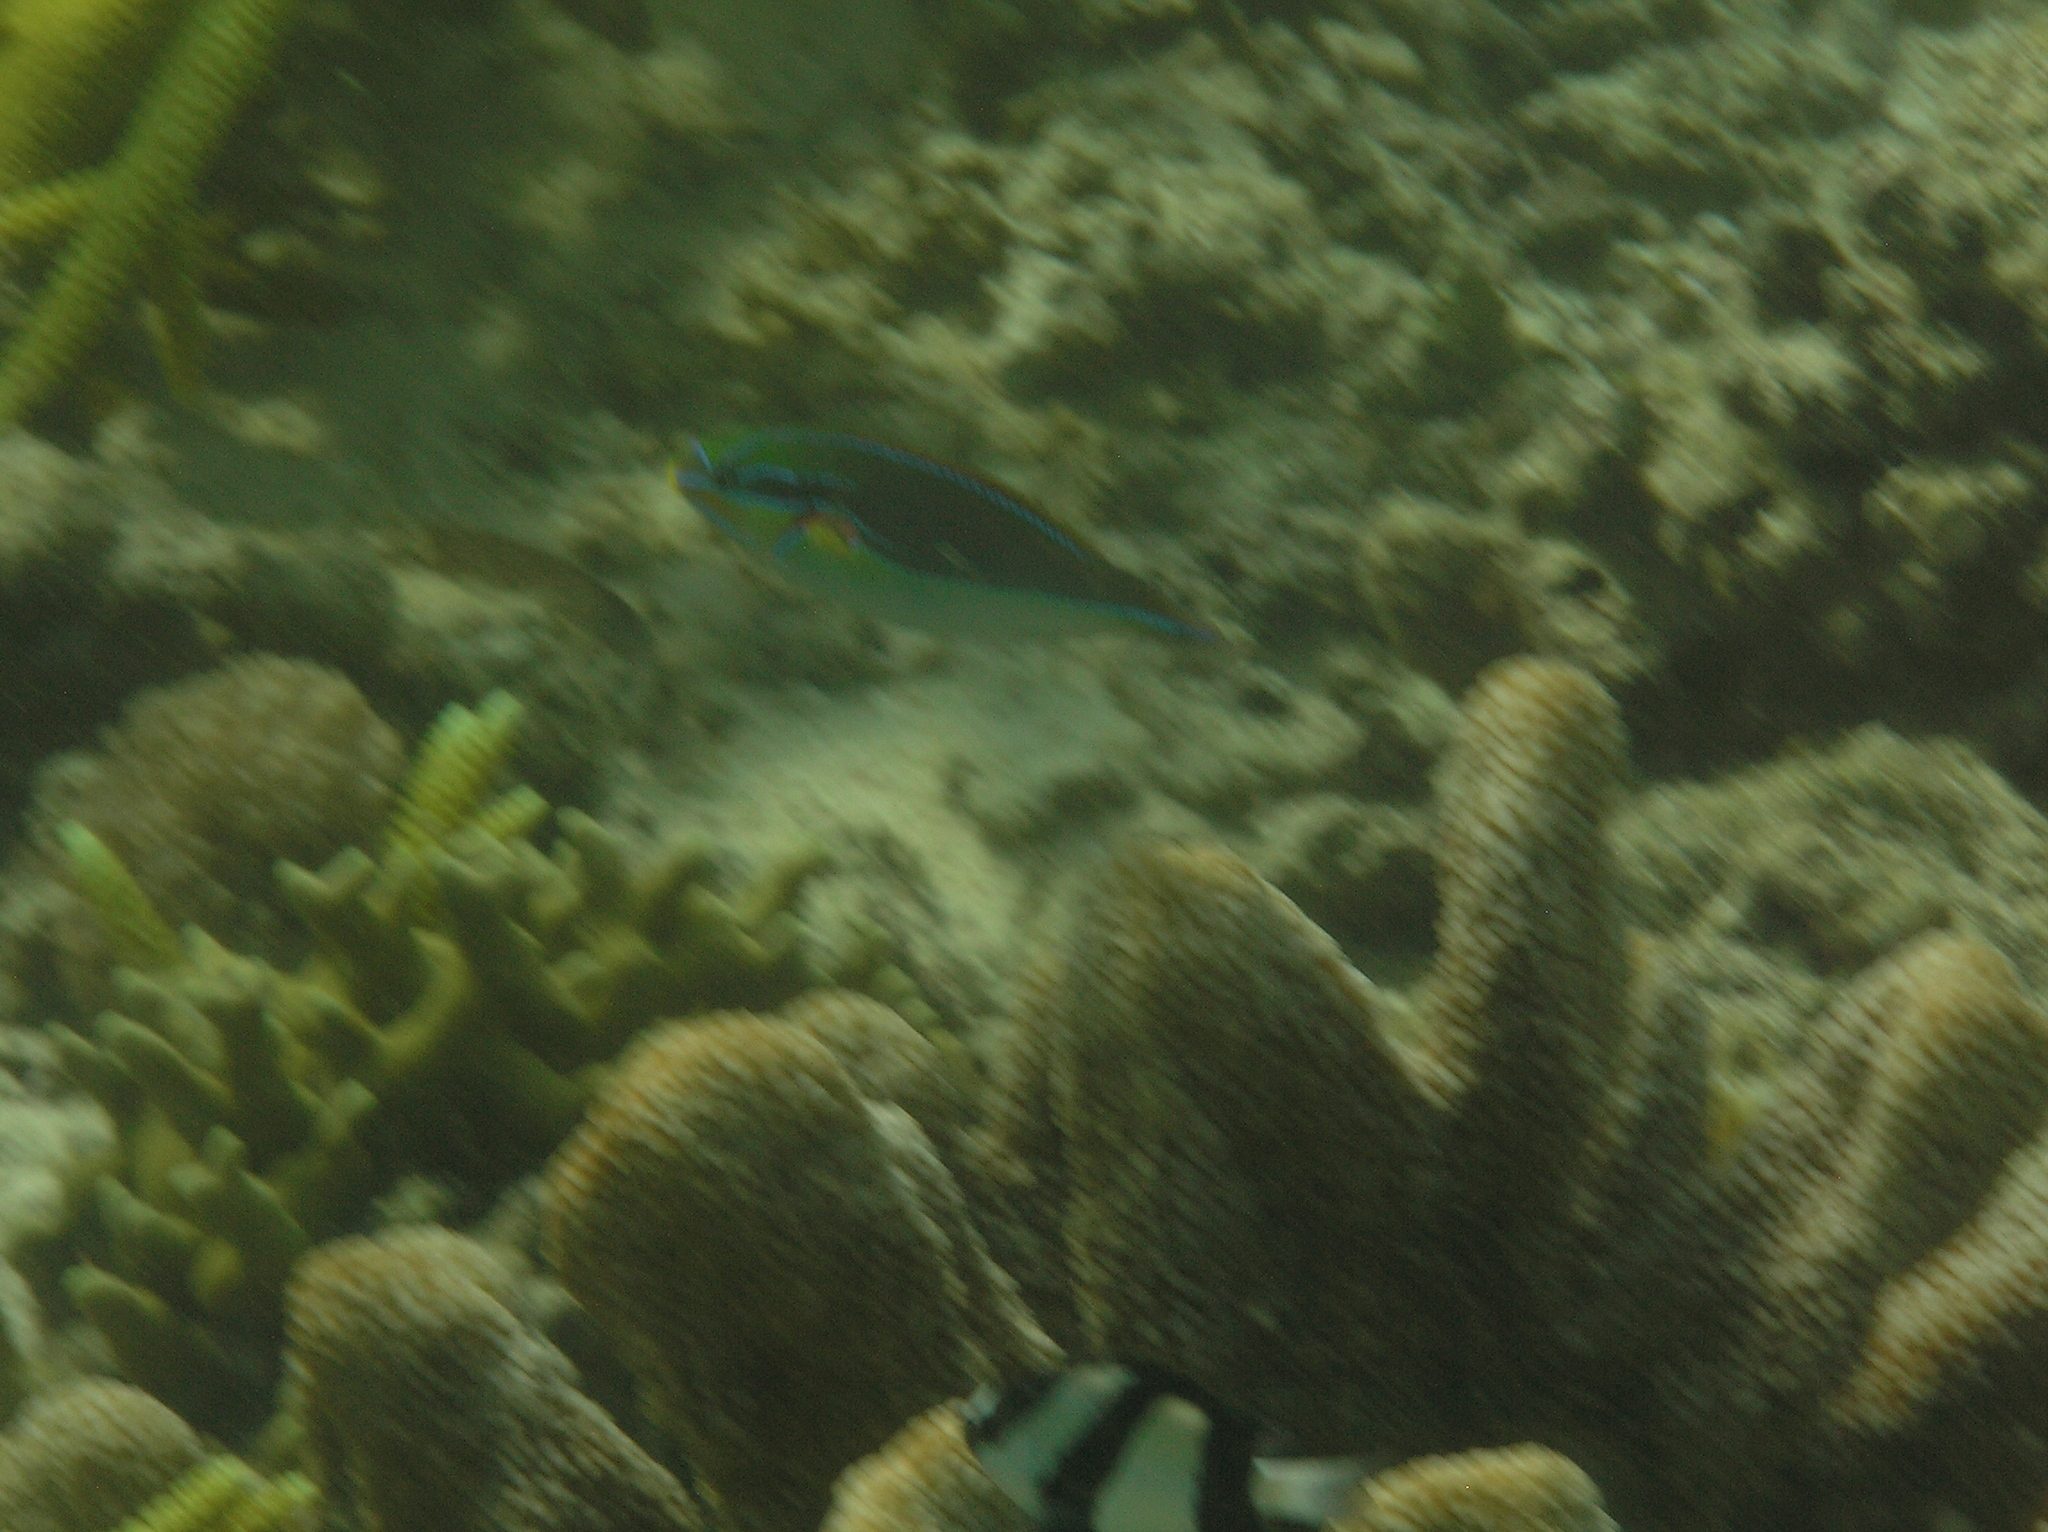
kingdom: Animalia
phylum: Chordata
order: Perciformes
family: Labridae
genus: Stethojulis
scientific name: Stethojulis bandanensis
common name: Red shoulder wrasse
